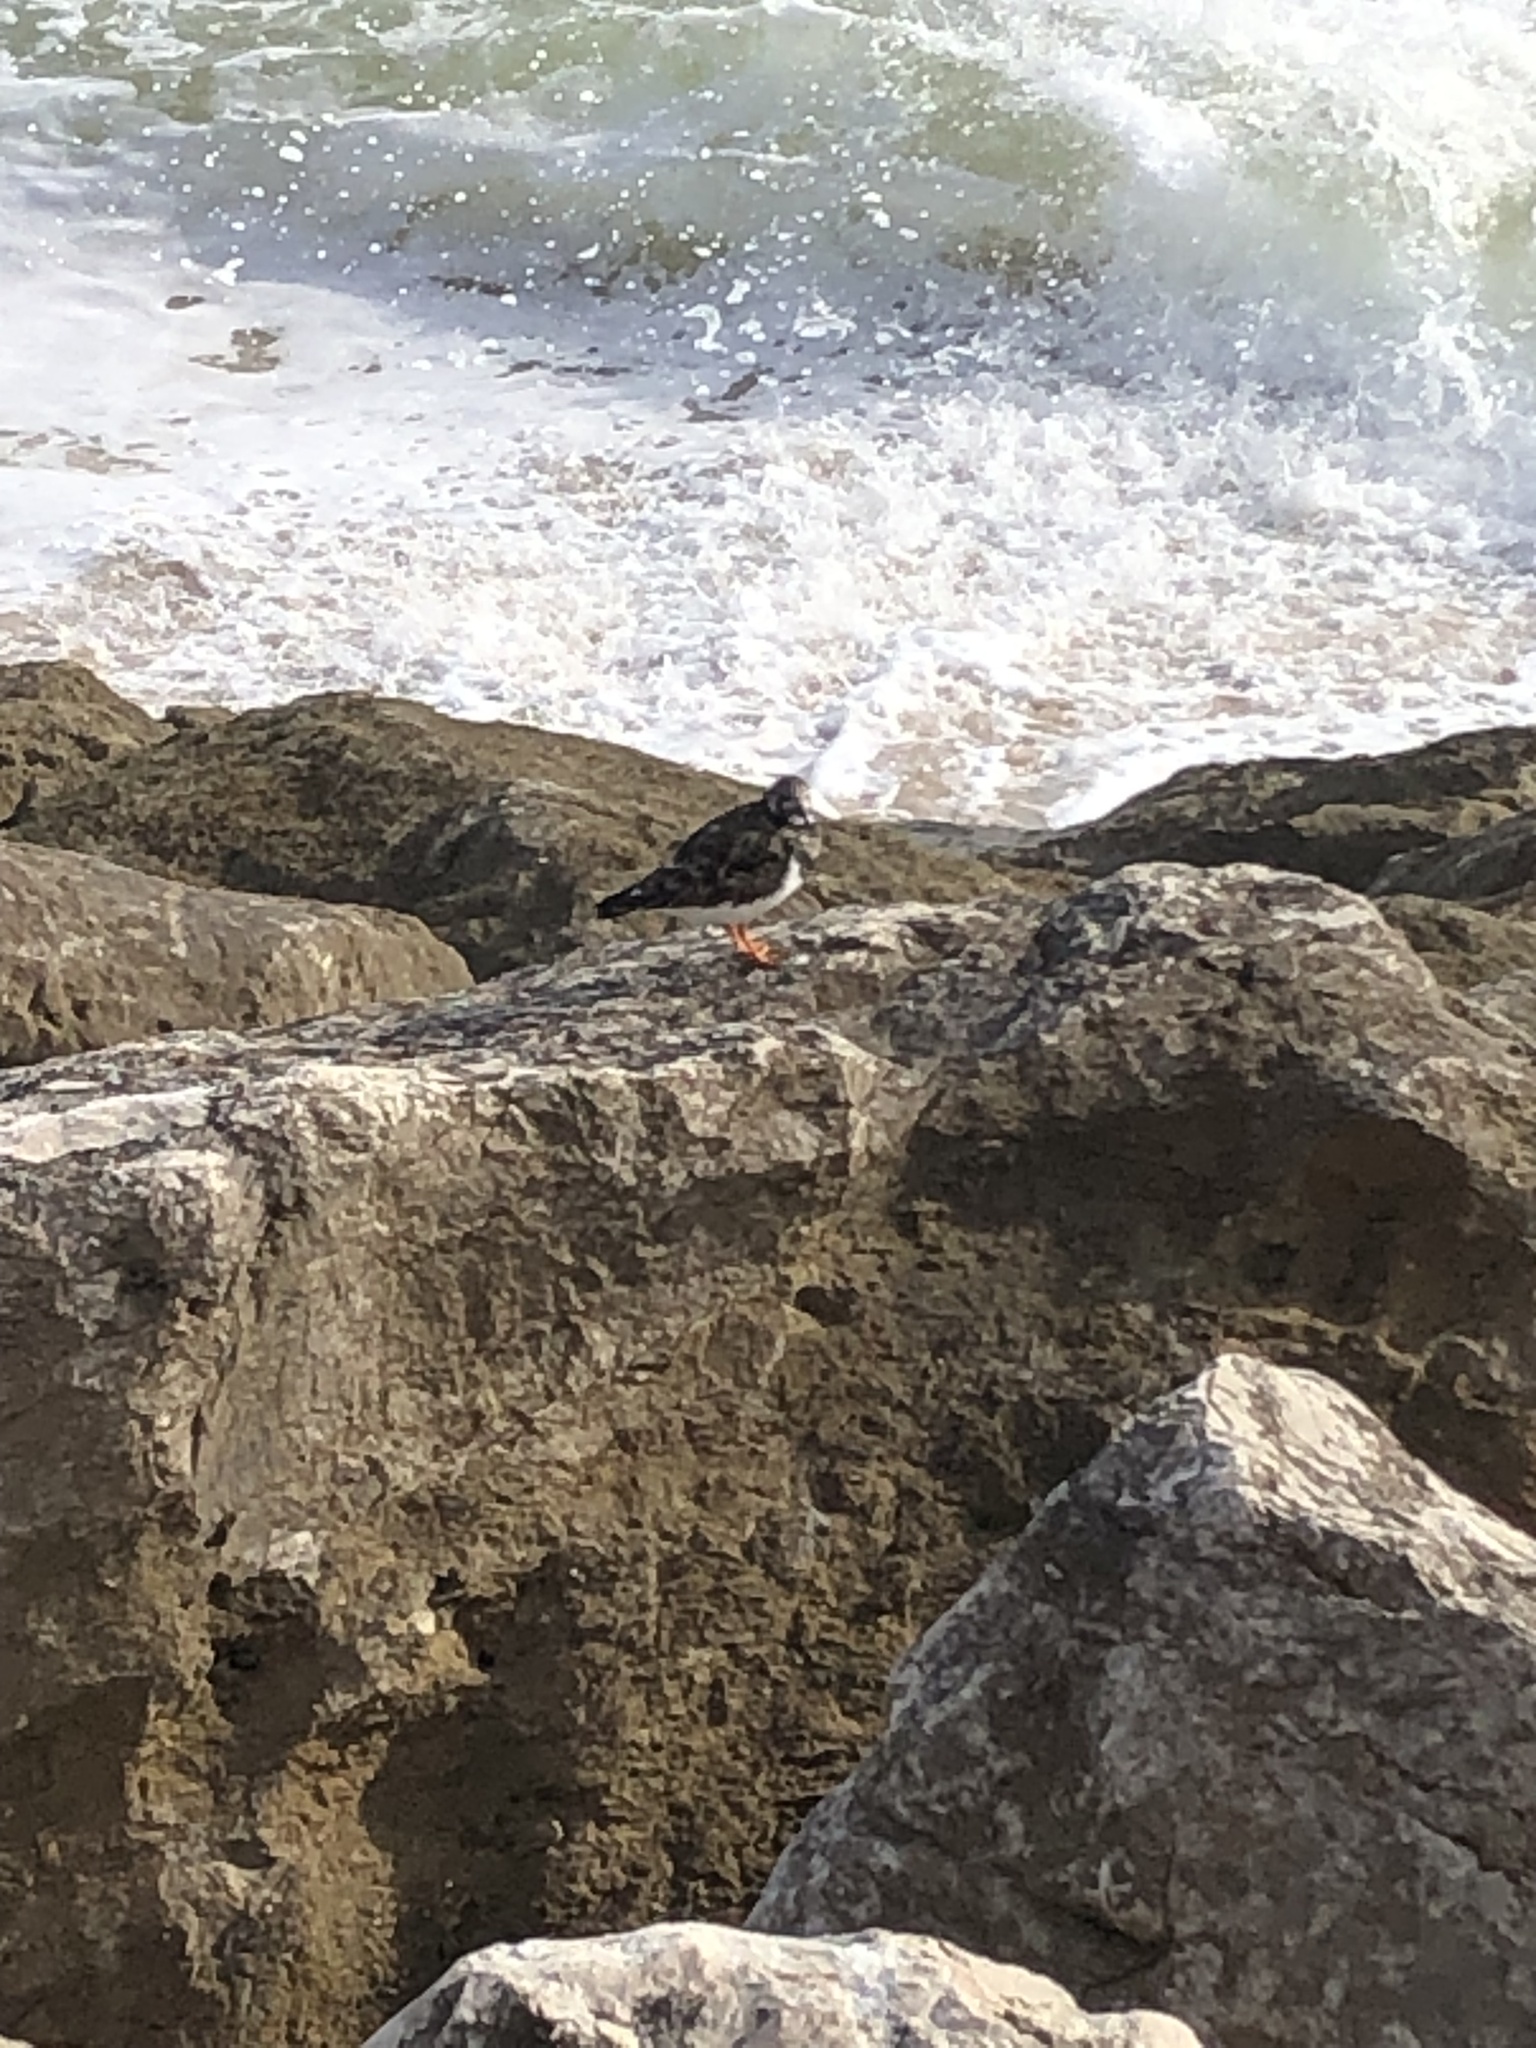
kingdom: Animalia
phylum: Chordata
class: Aves
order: Charadriiformes
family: Scolopacidae
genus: Arenaria
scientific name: Arenaria interpres
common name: Ruddy turnstone
